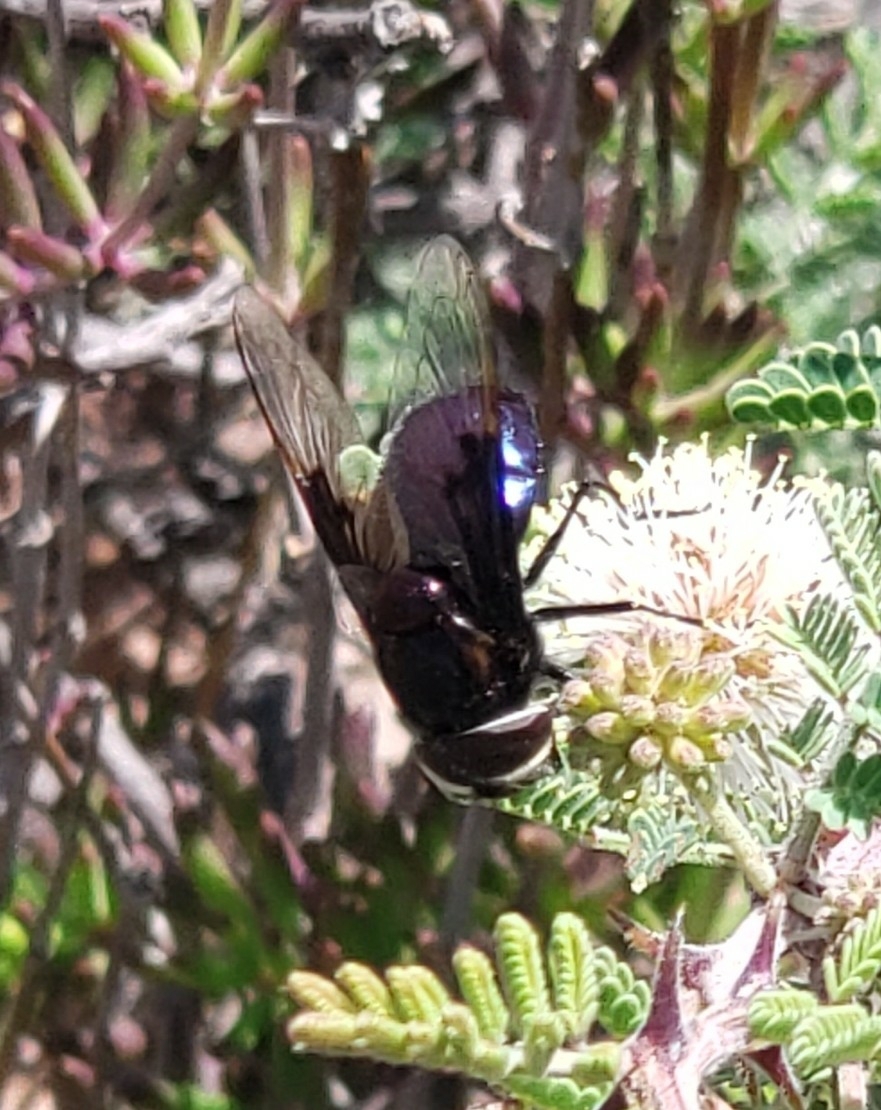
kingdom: Animalia
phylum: Arthropoda
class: Insecta
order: Diptera
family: Syrphidae
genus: Copestylum
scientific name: Copestylum violaceum
